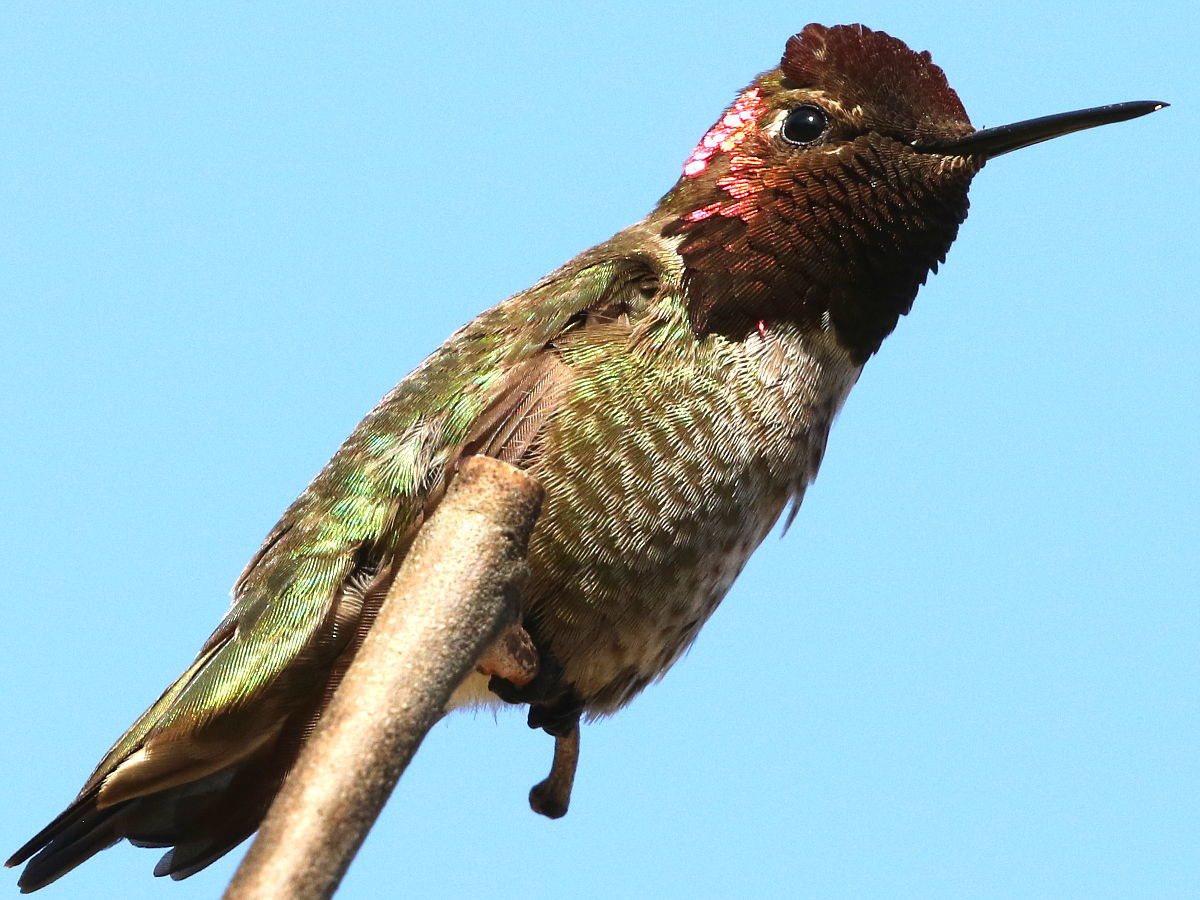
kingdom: Animalia
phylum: Chordata
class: Aves
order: Apodiformes
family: Trochilidae
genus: Calypte
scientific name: Calypte anna
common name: Anna's hummingbird
